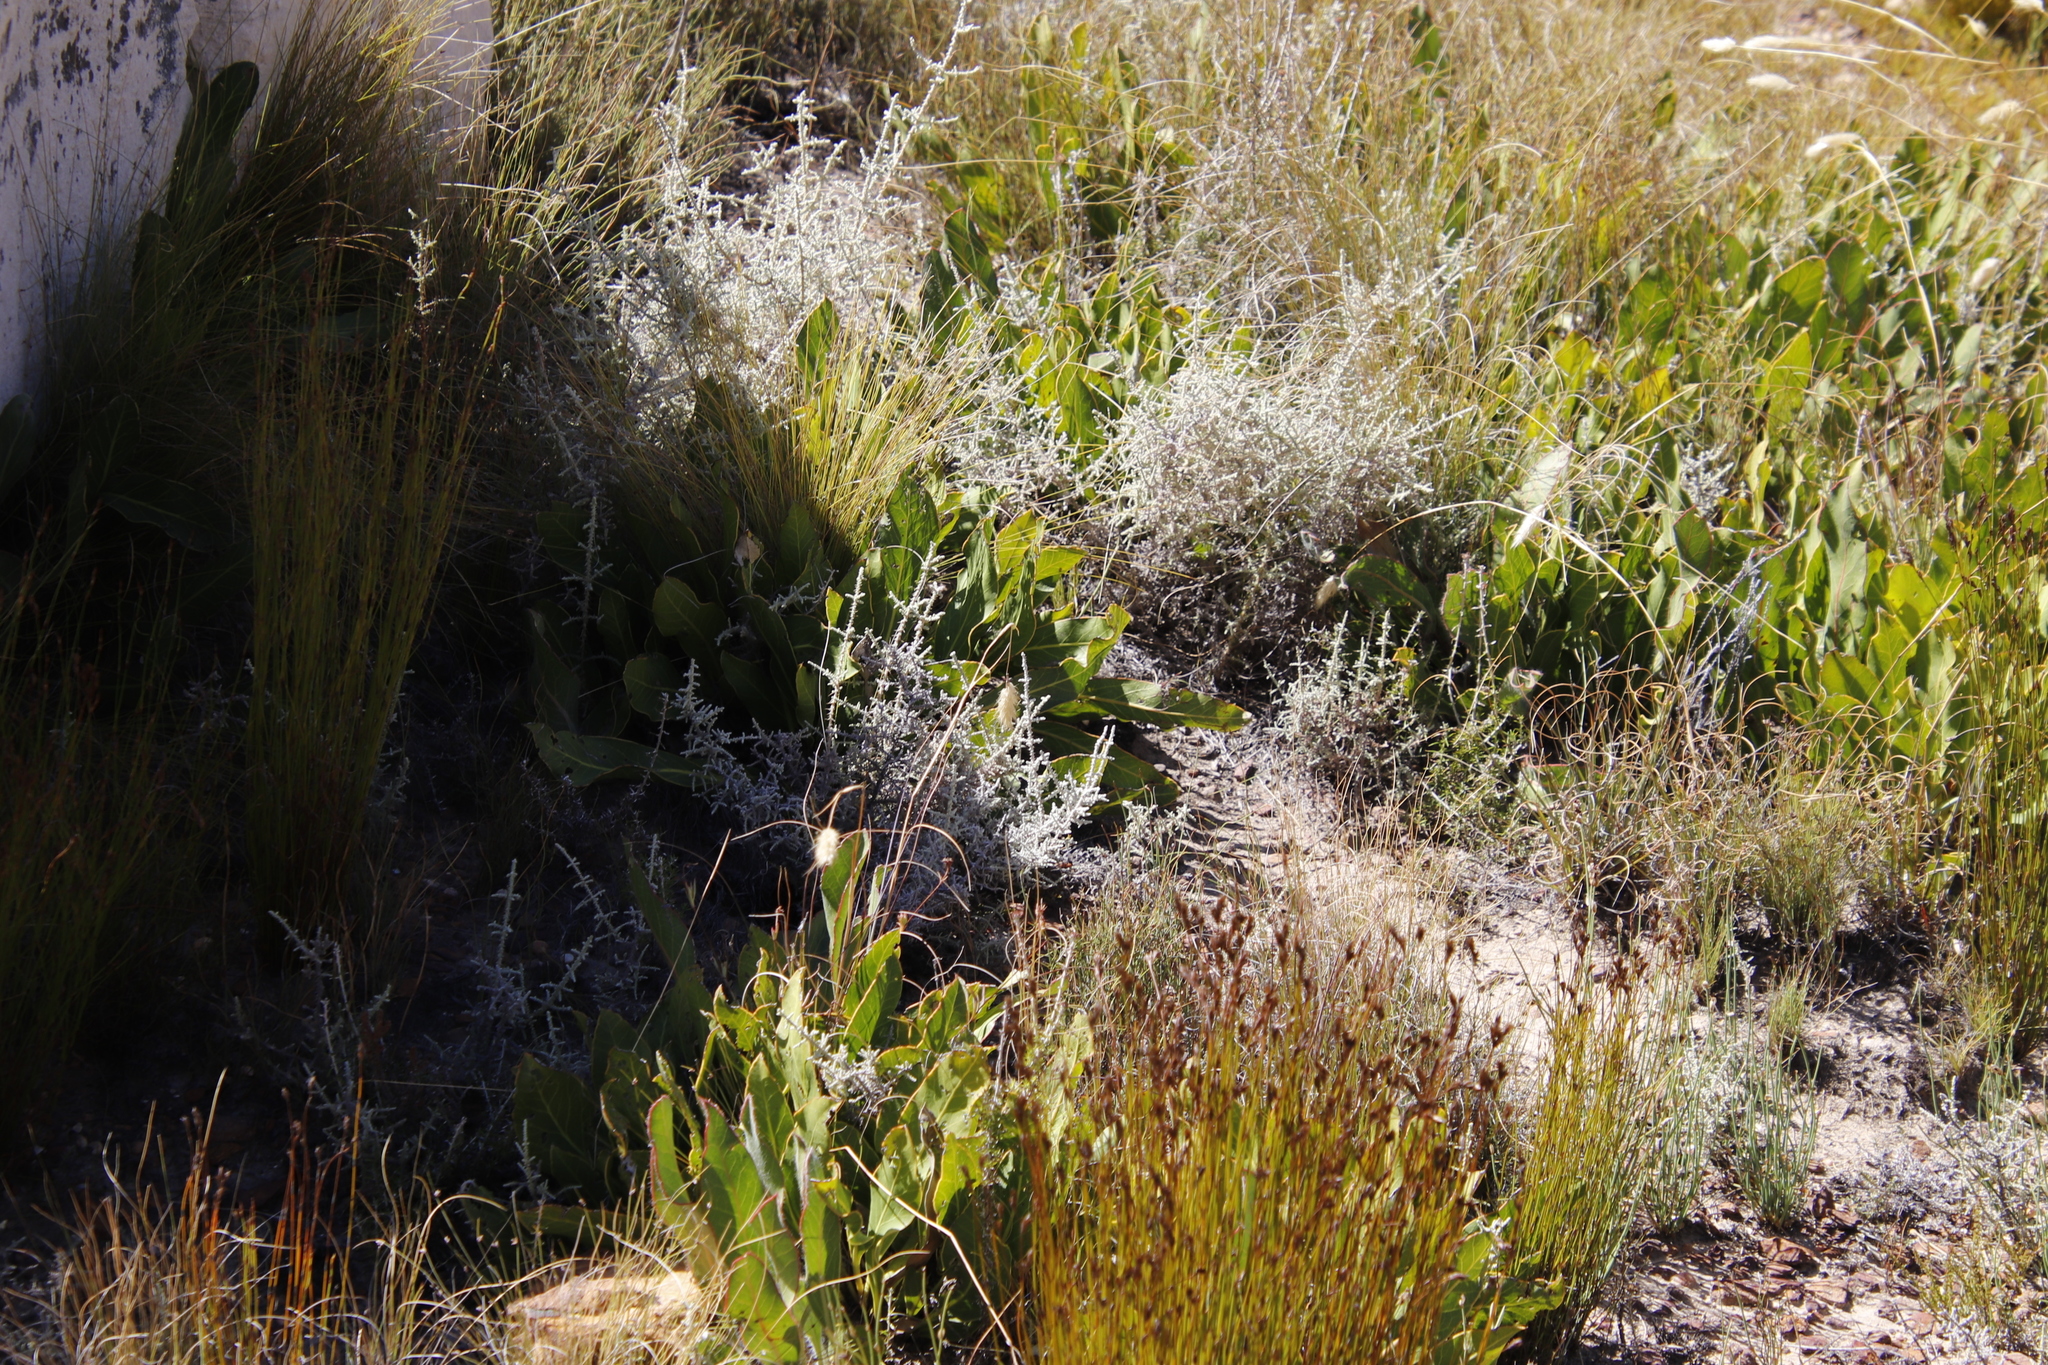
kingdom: Plantae
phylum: Tracheophyta
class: Magnoliopsida
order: Proteales
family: Proteaceae
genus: Protea
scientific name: Protea scolopendriifolia
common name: Harts-tongue-fern sugarbush
